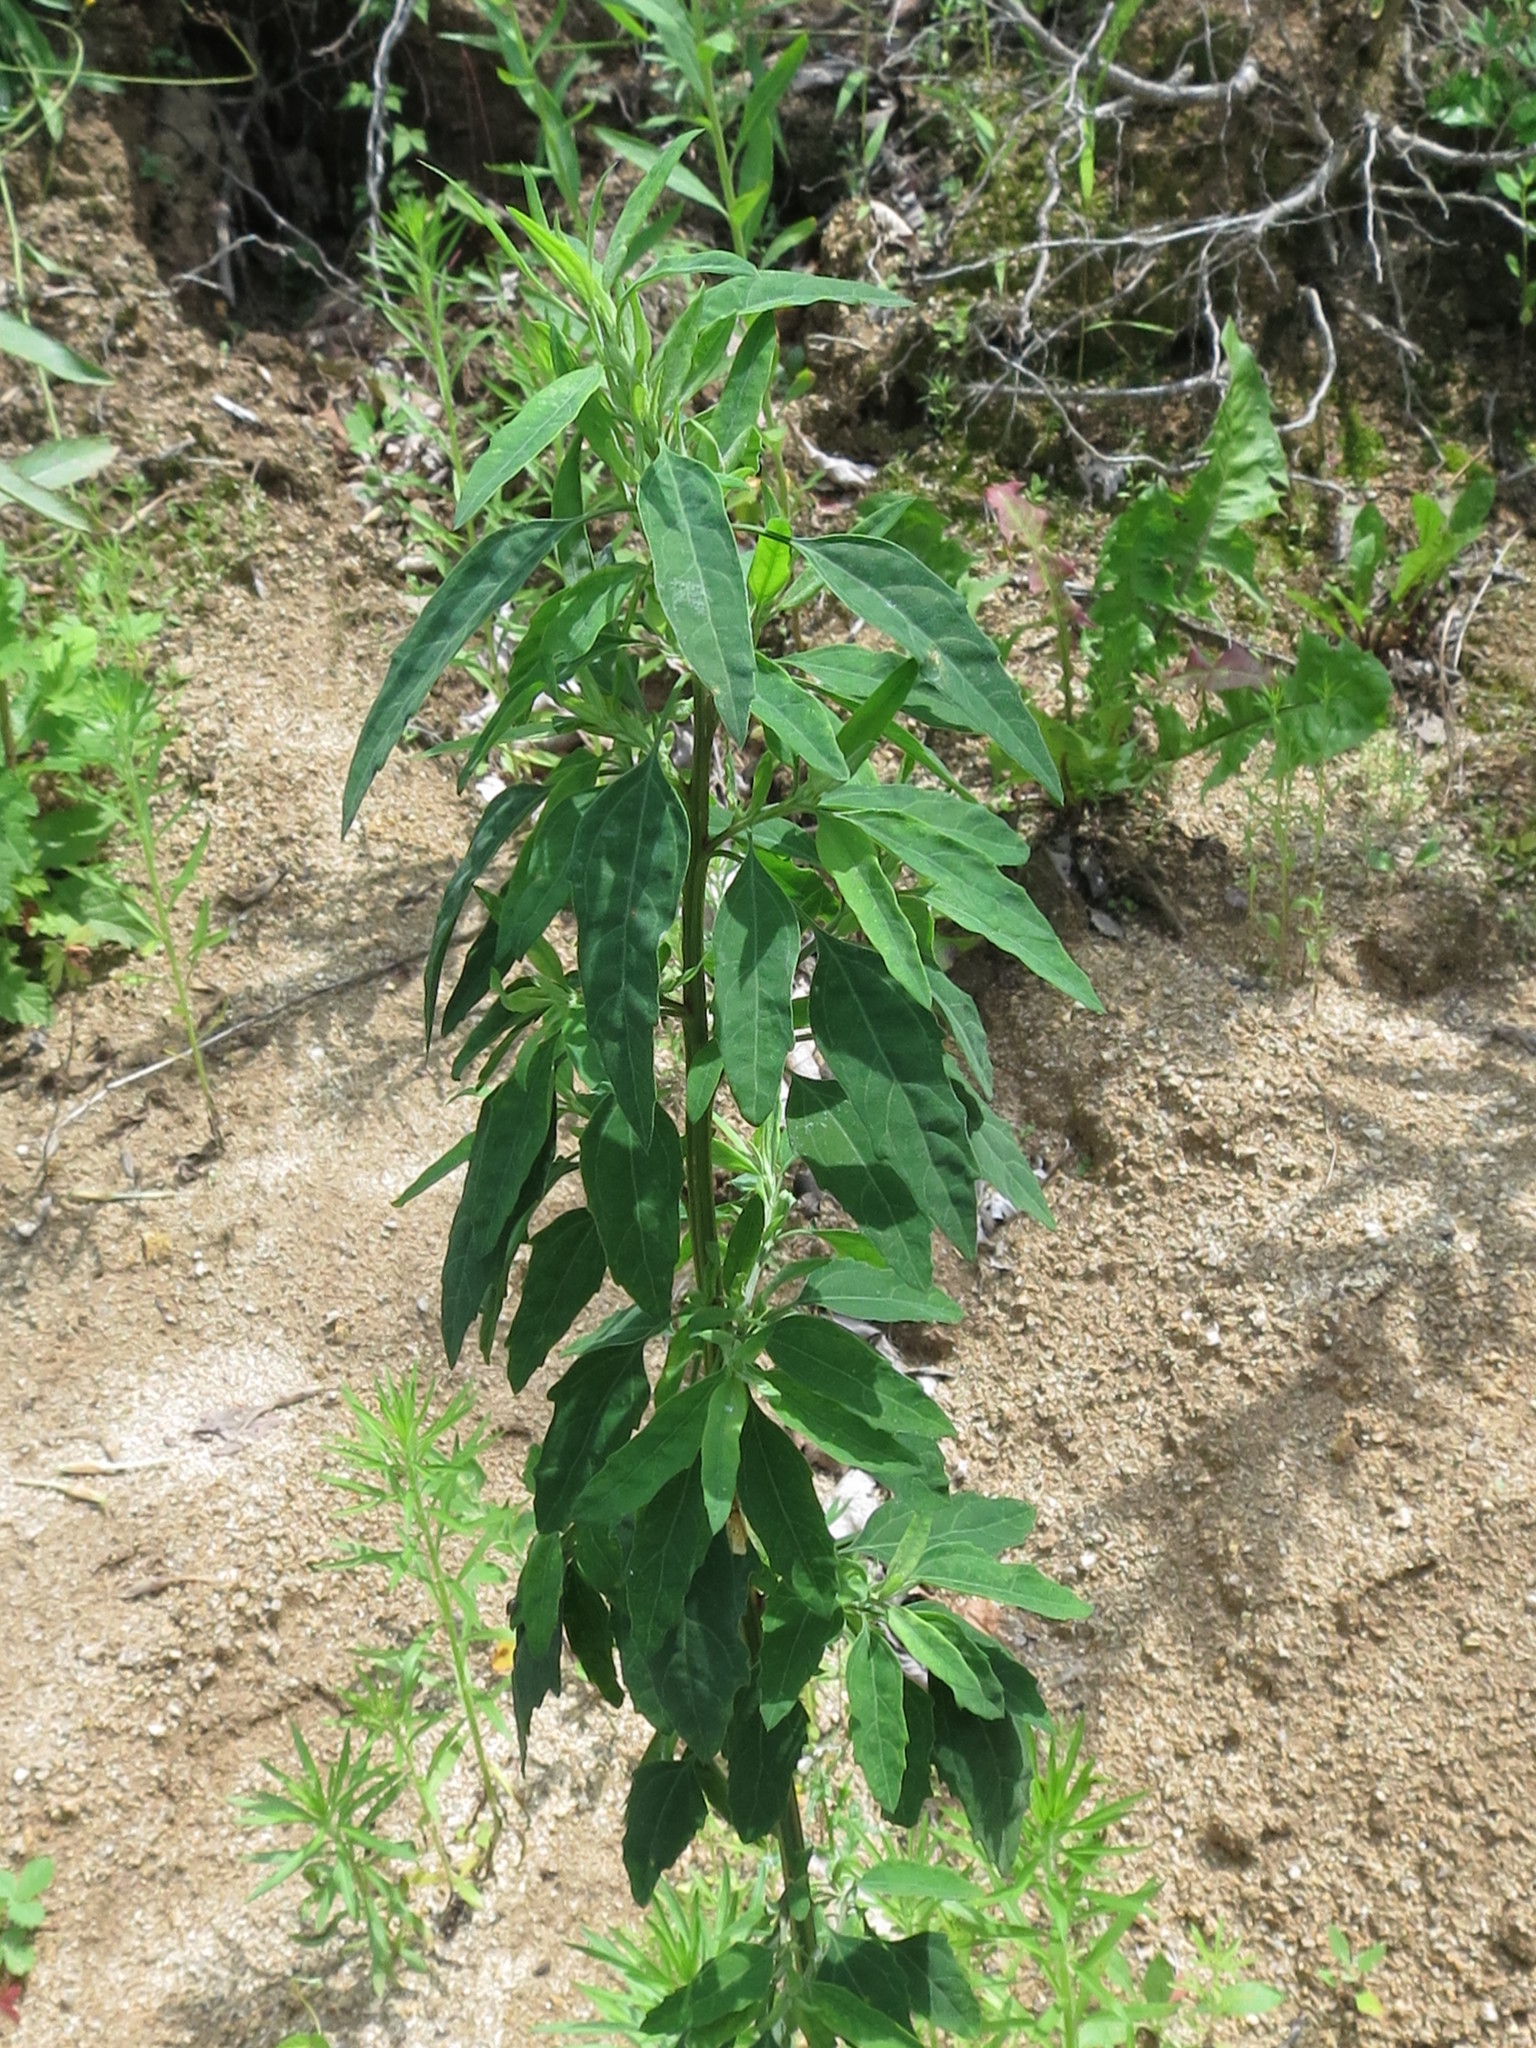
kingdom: Plantae
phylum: Tracheophyta
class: Magnoliopsida
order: Caryophyllales
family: Amaranthaceae
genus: Chenopodium
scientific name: Chenopodium album
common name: Fat-hen
